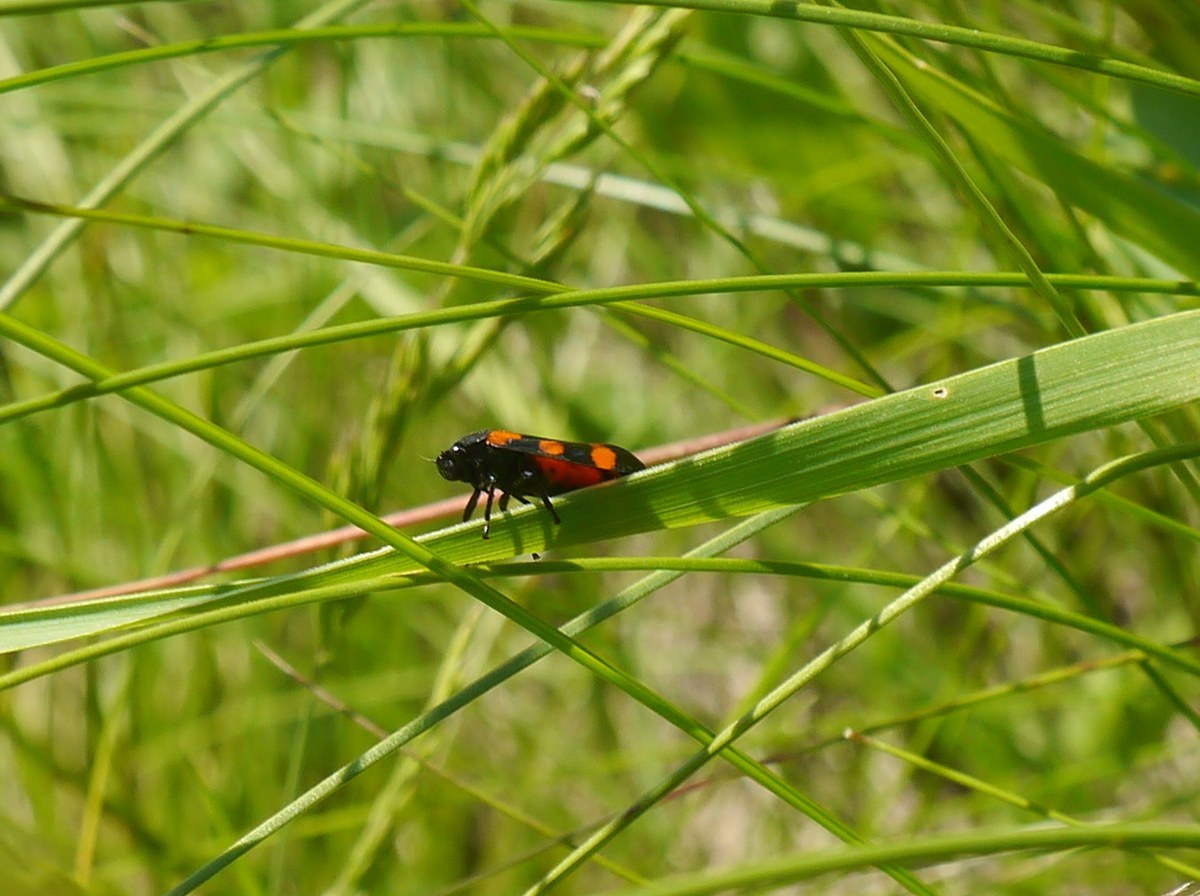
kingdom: Animalia
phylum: Arthropoda
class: Insecta
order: Hemiptera
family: Cercopidae
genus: Cercopis
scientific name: Cercopis sanguinolenta
